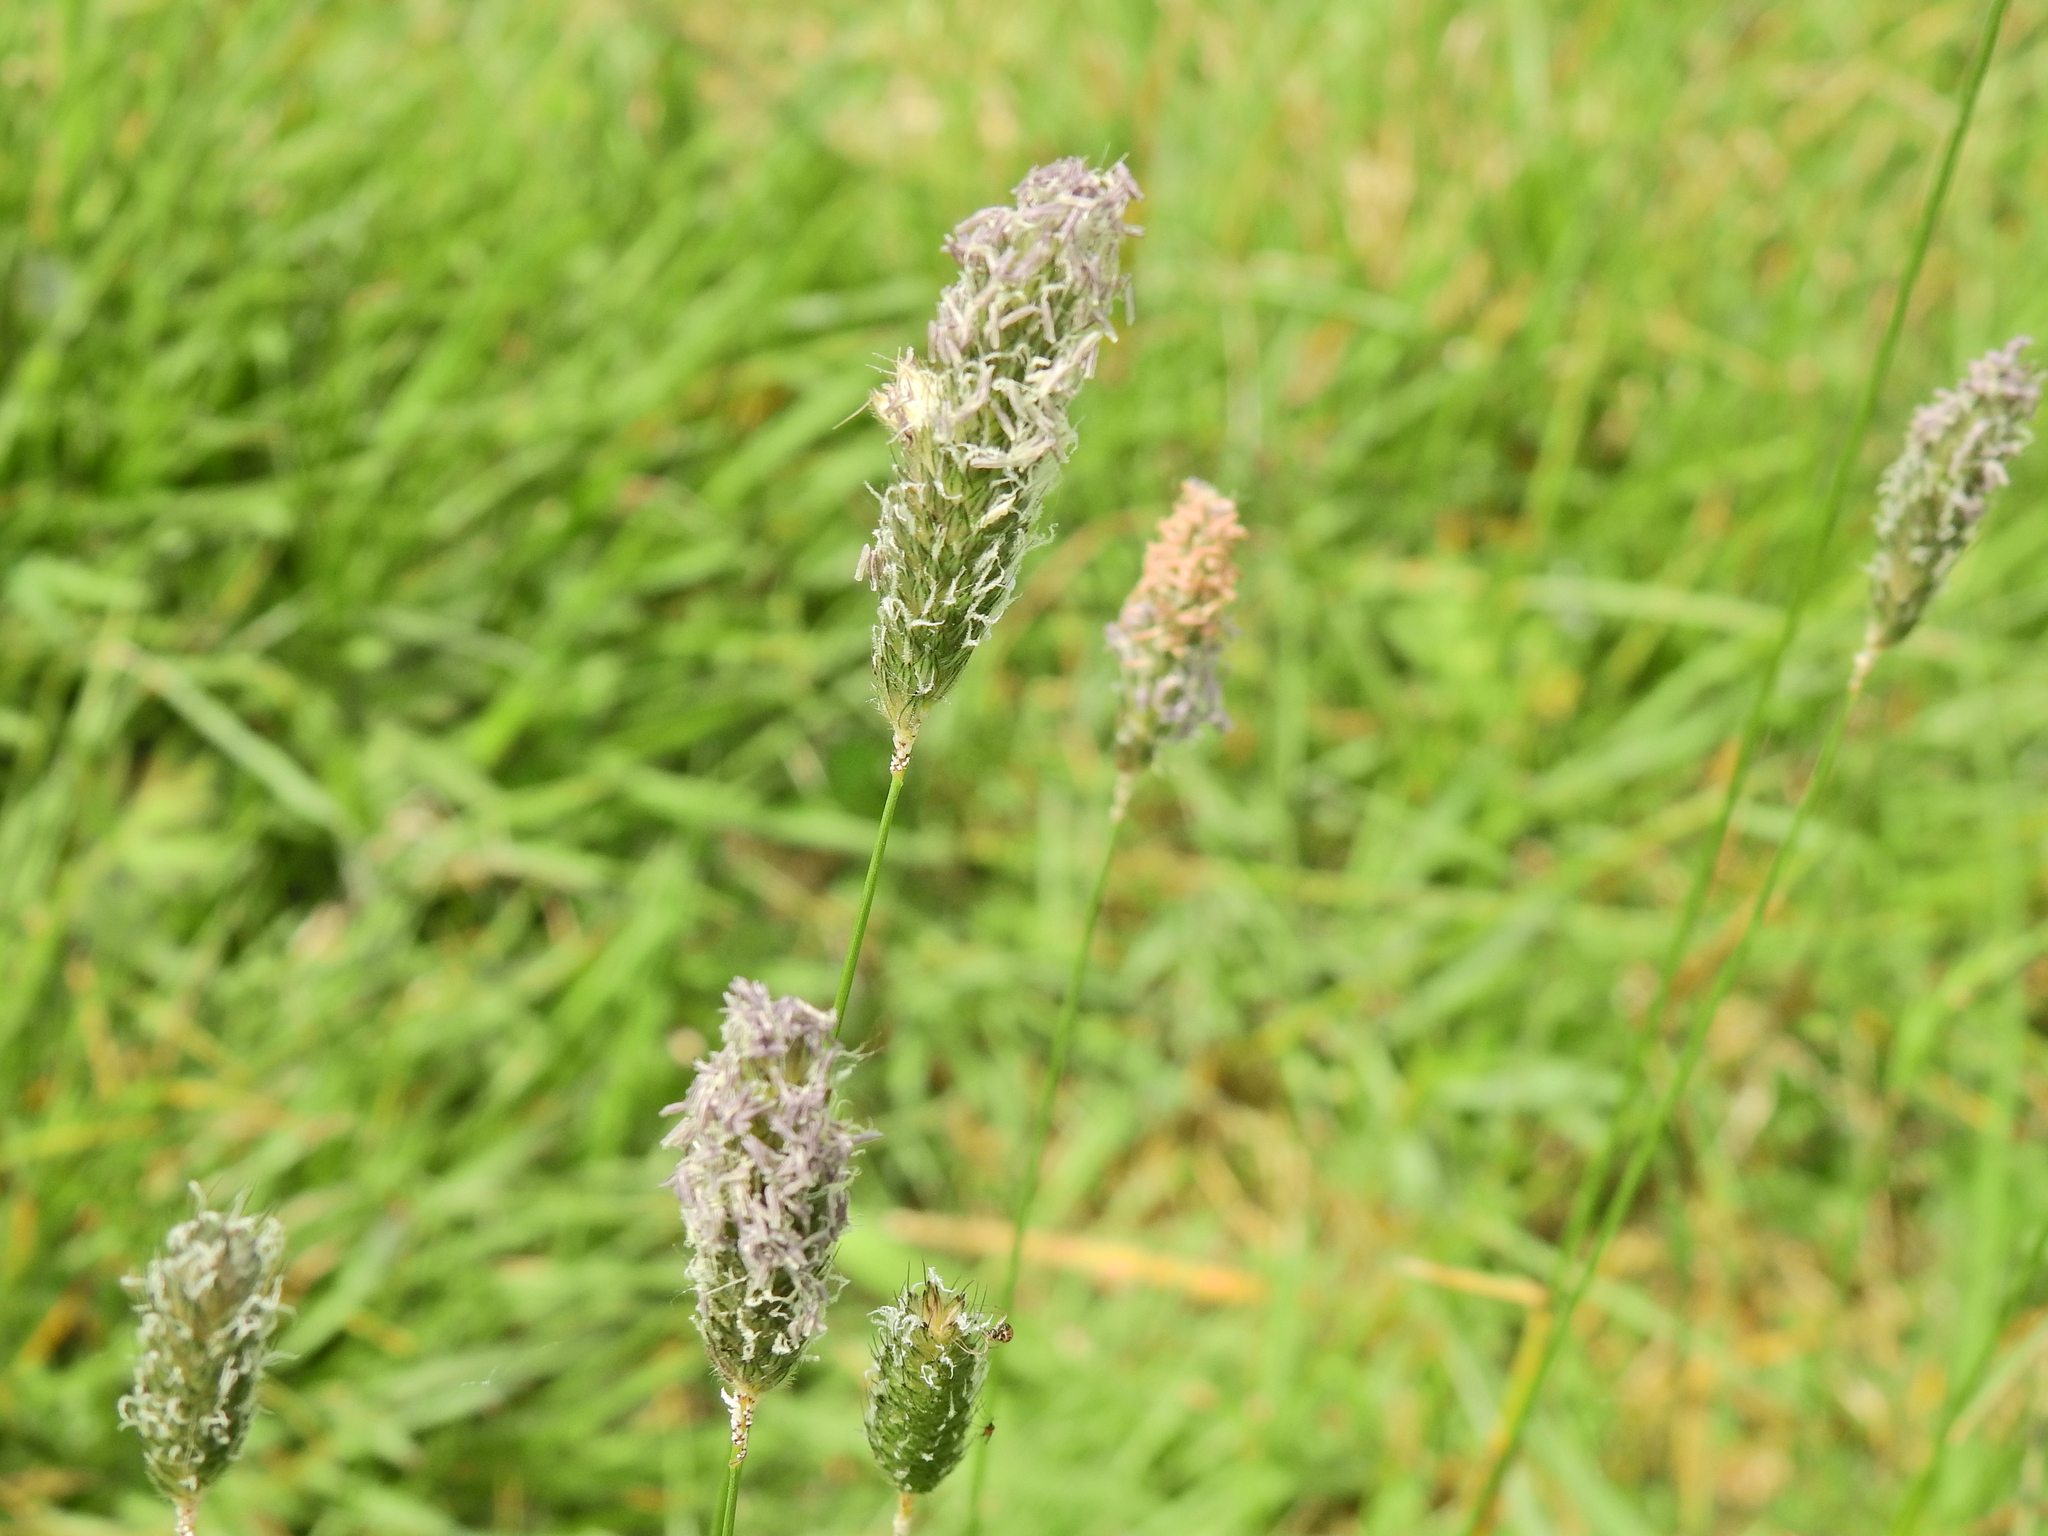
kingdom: Plantae
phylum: Tracheophyta
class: Liliopsida
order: Poales
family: Poaceae
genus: Alopecurus
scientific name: Alopecurus pratensis
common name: Meadow foxtail
